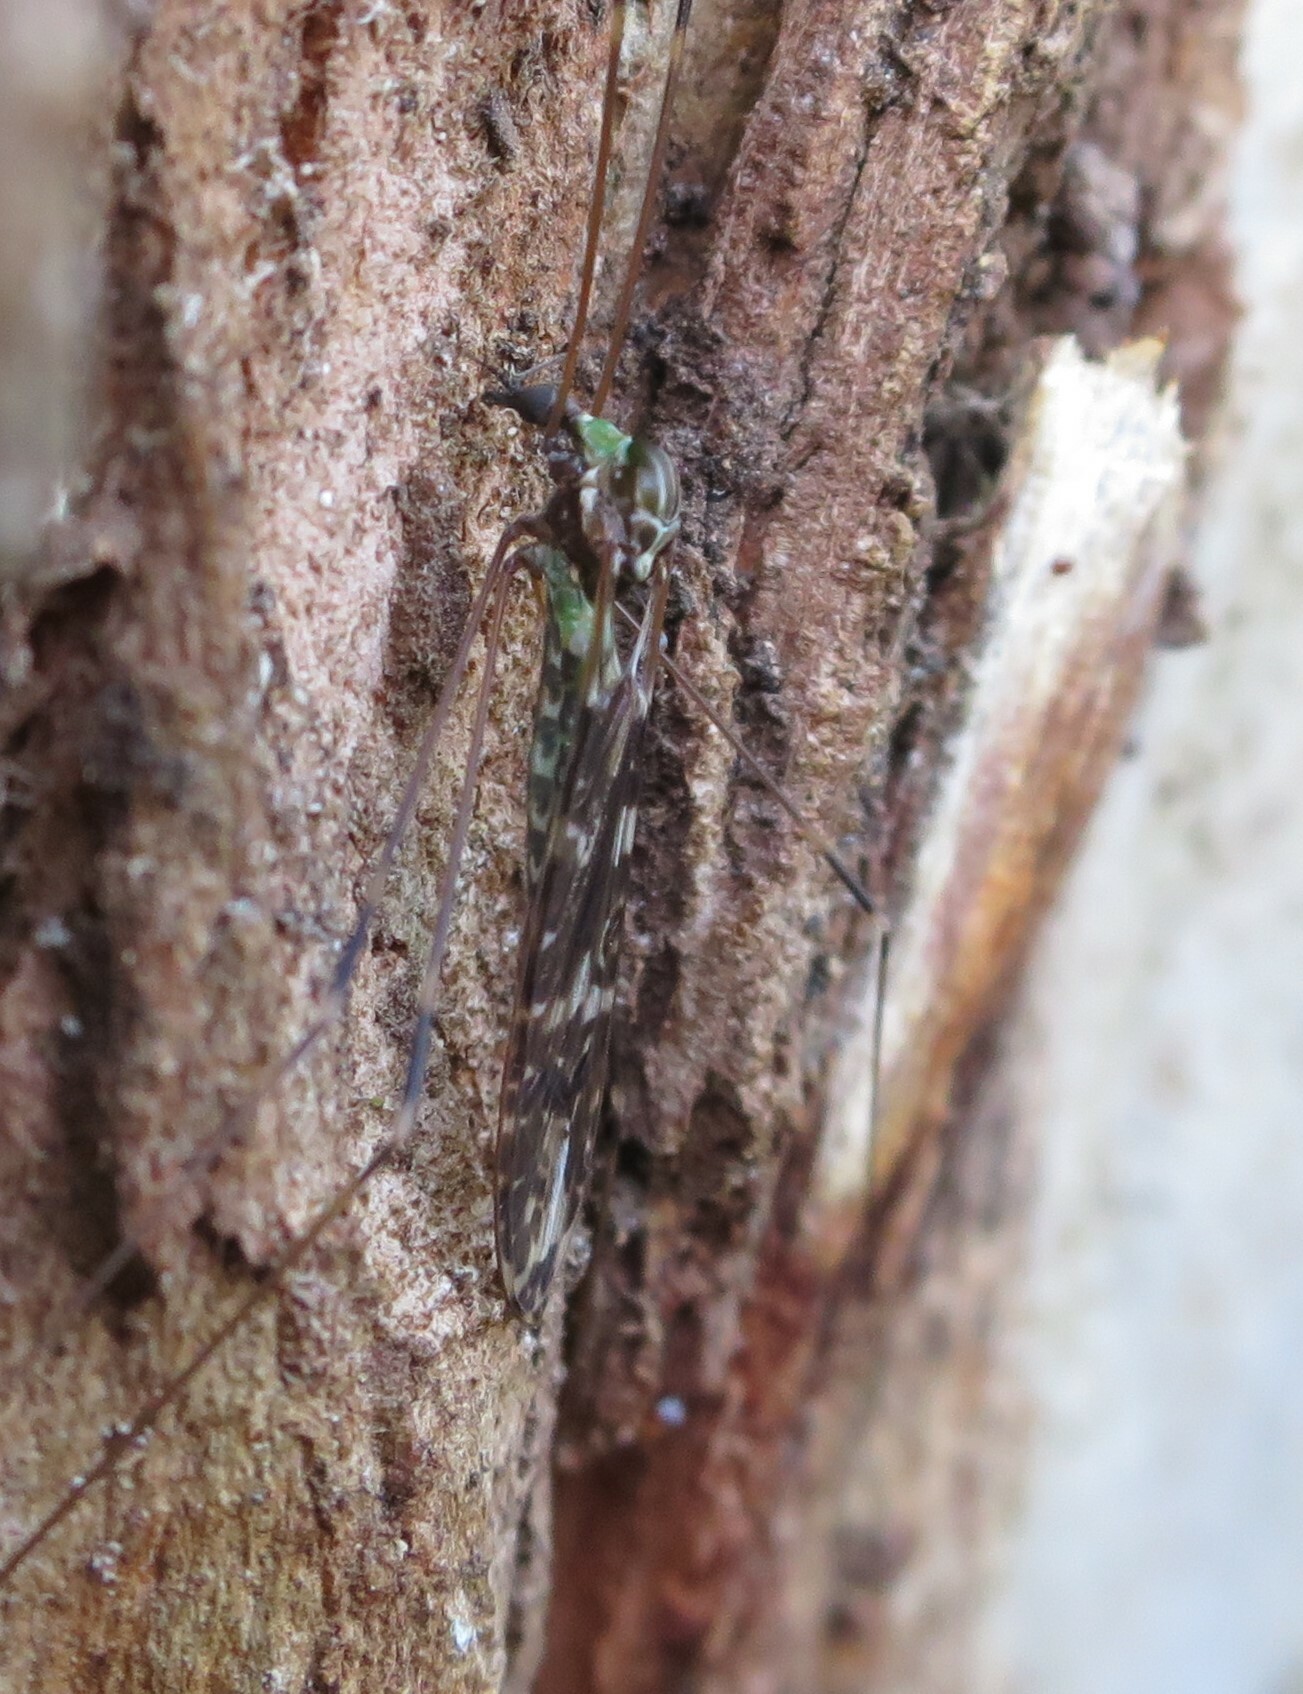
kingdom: Animalia
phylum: Arthropoda
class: Insecta
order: Diptera
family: Limoniidae
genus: Discobola
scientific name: Discobola dohrni
